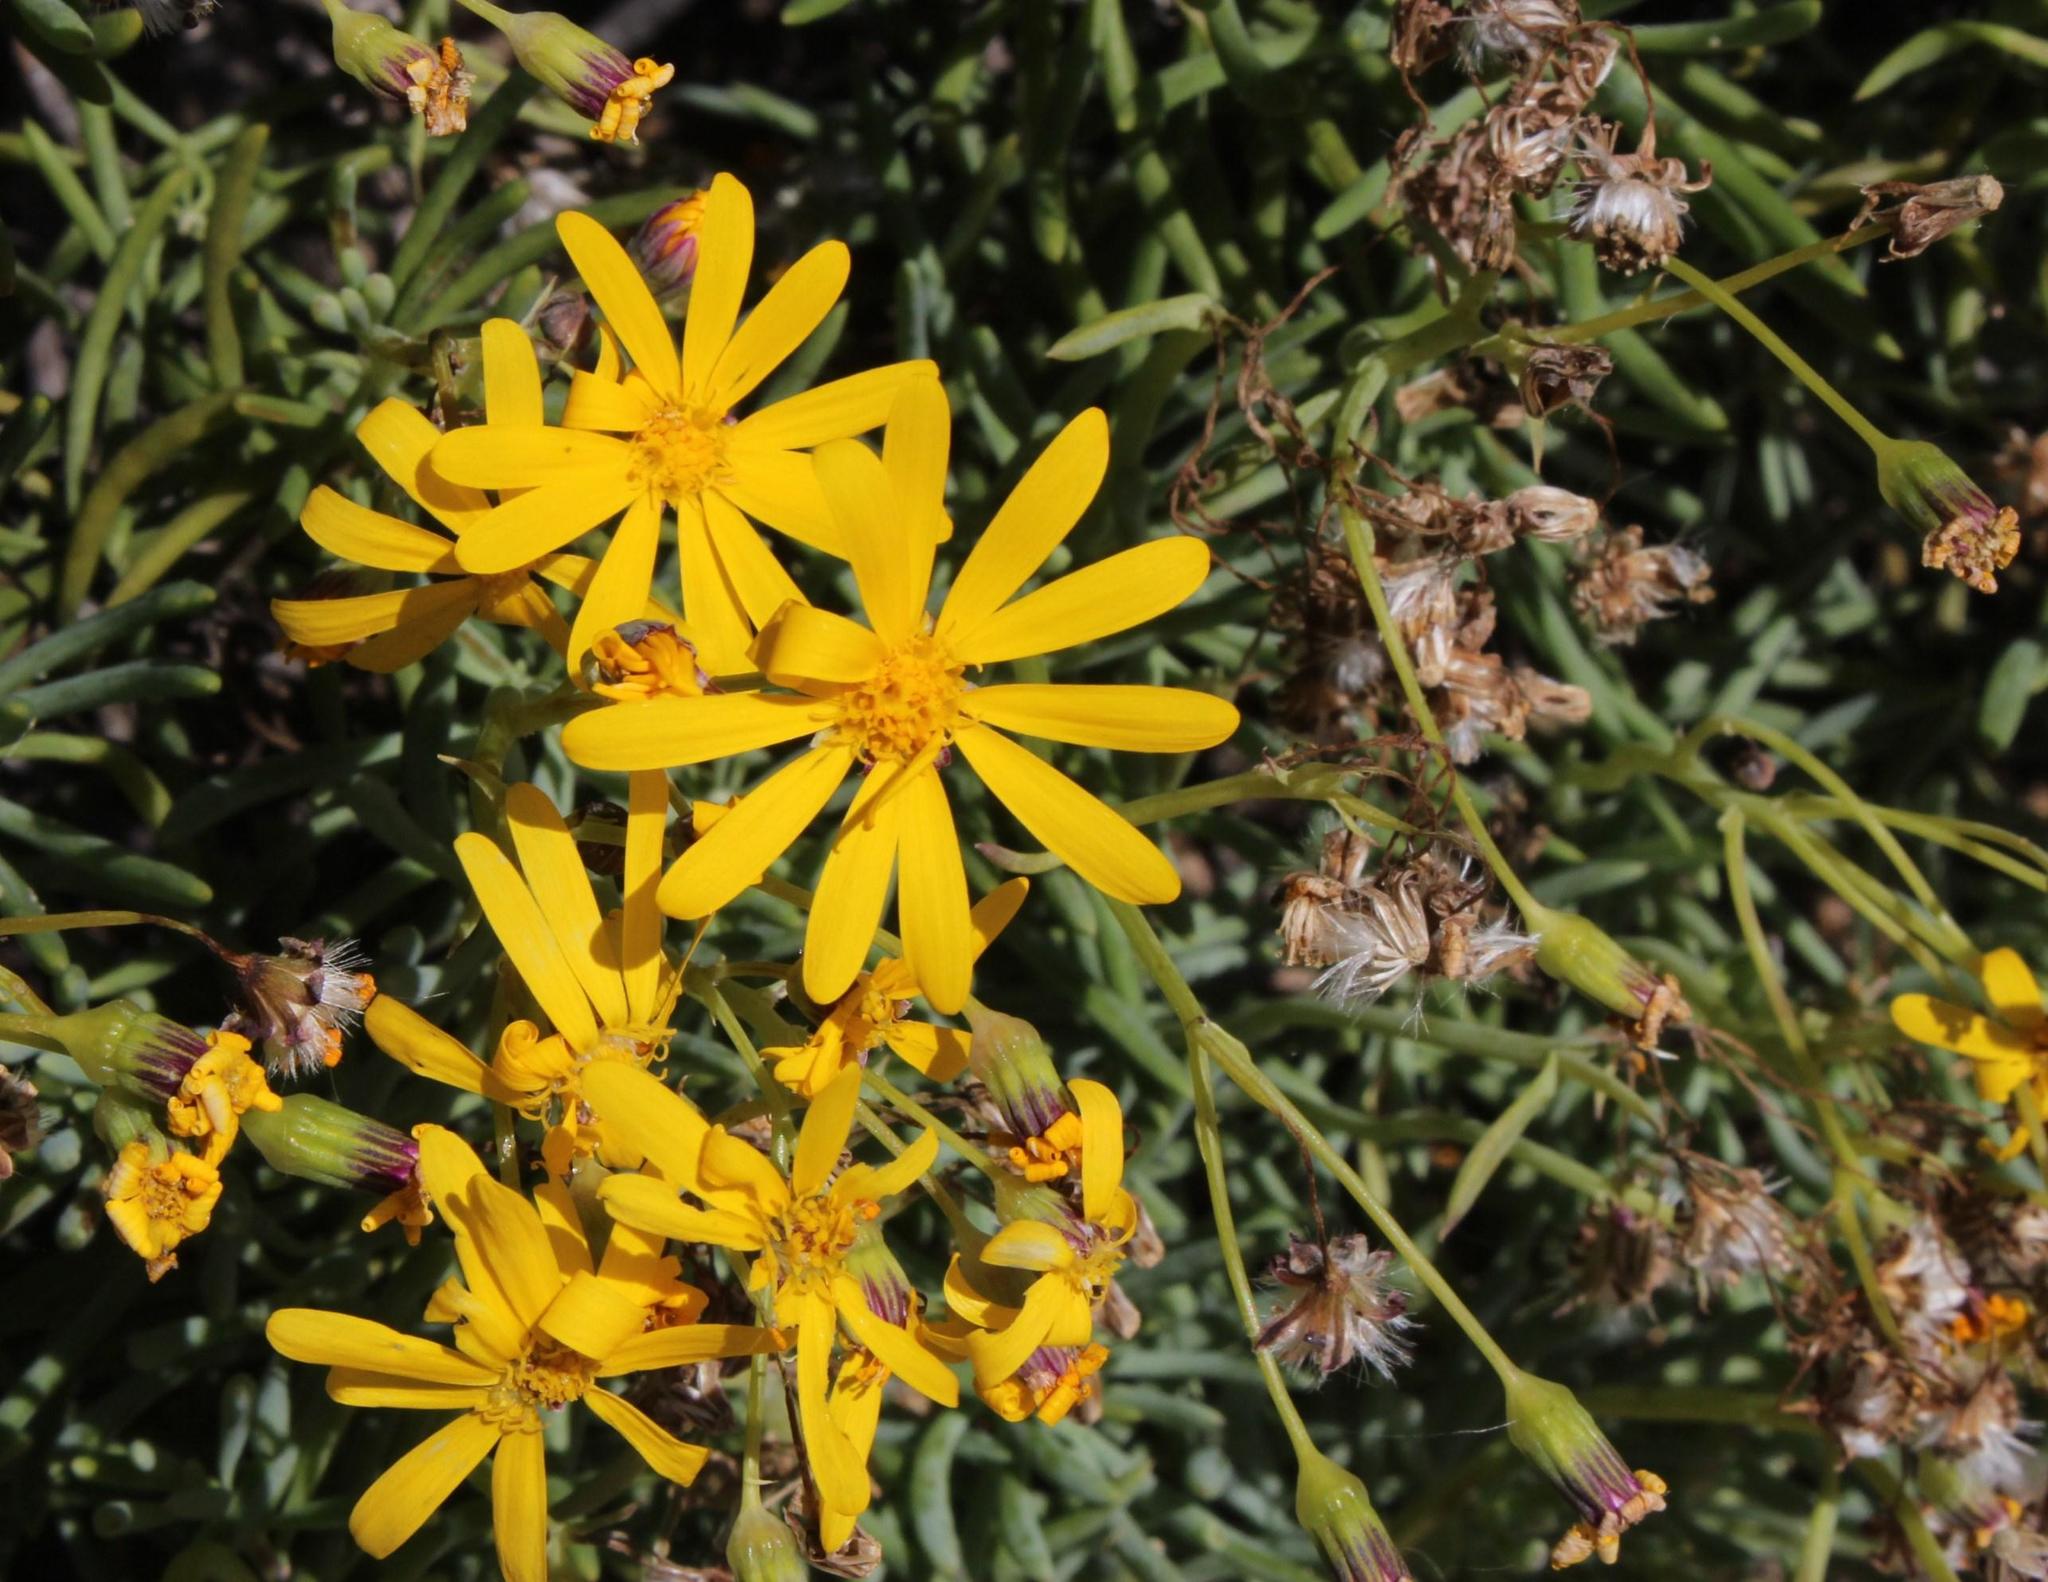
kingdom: Plantae
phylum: Tracheophyta
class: Magnoliopsida
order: Asterales
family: Asteraceae
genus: Crassothonna
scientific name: Crassothonna cylindrica
